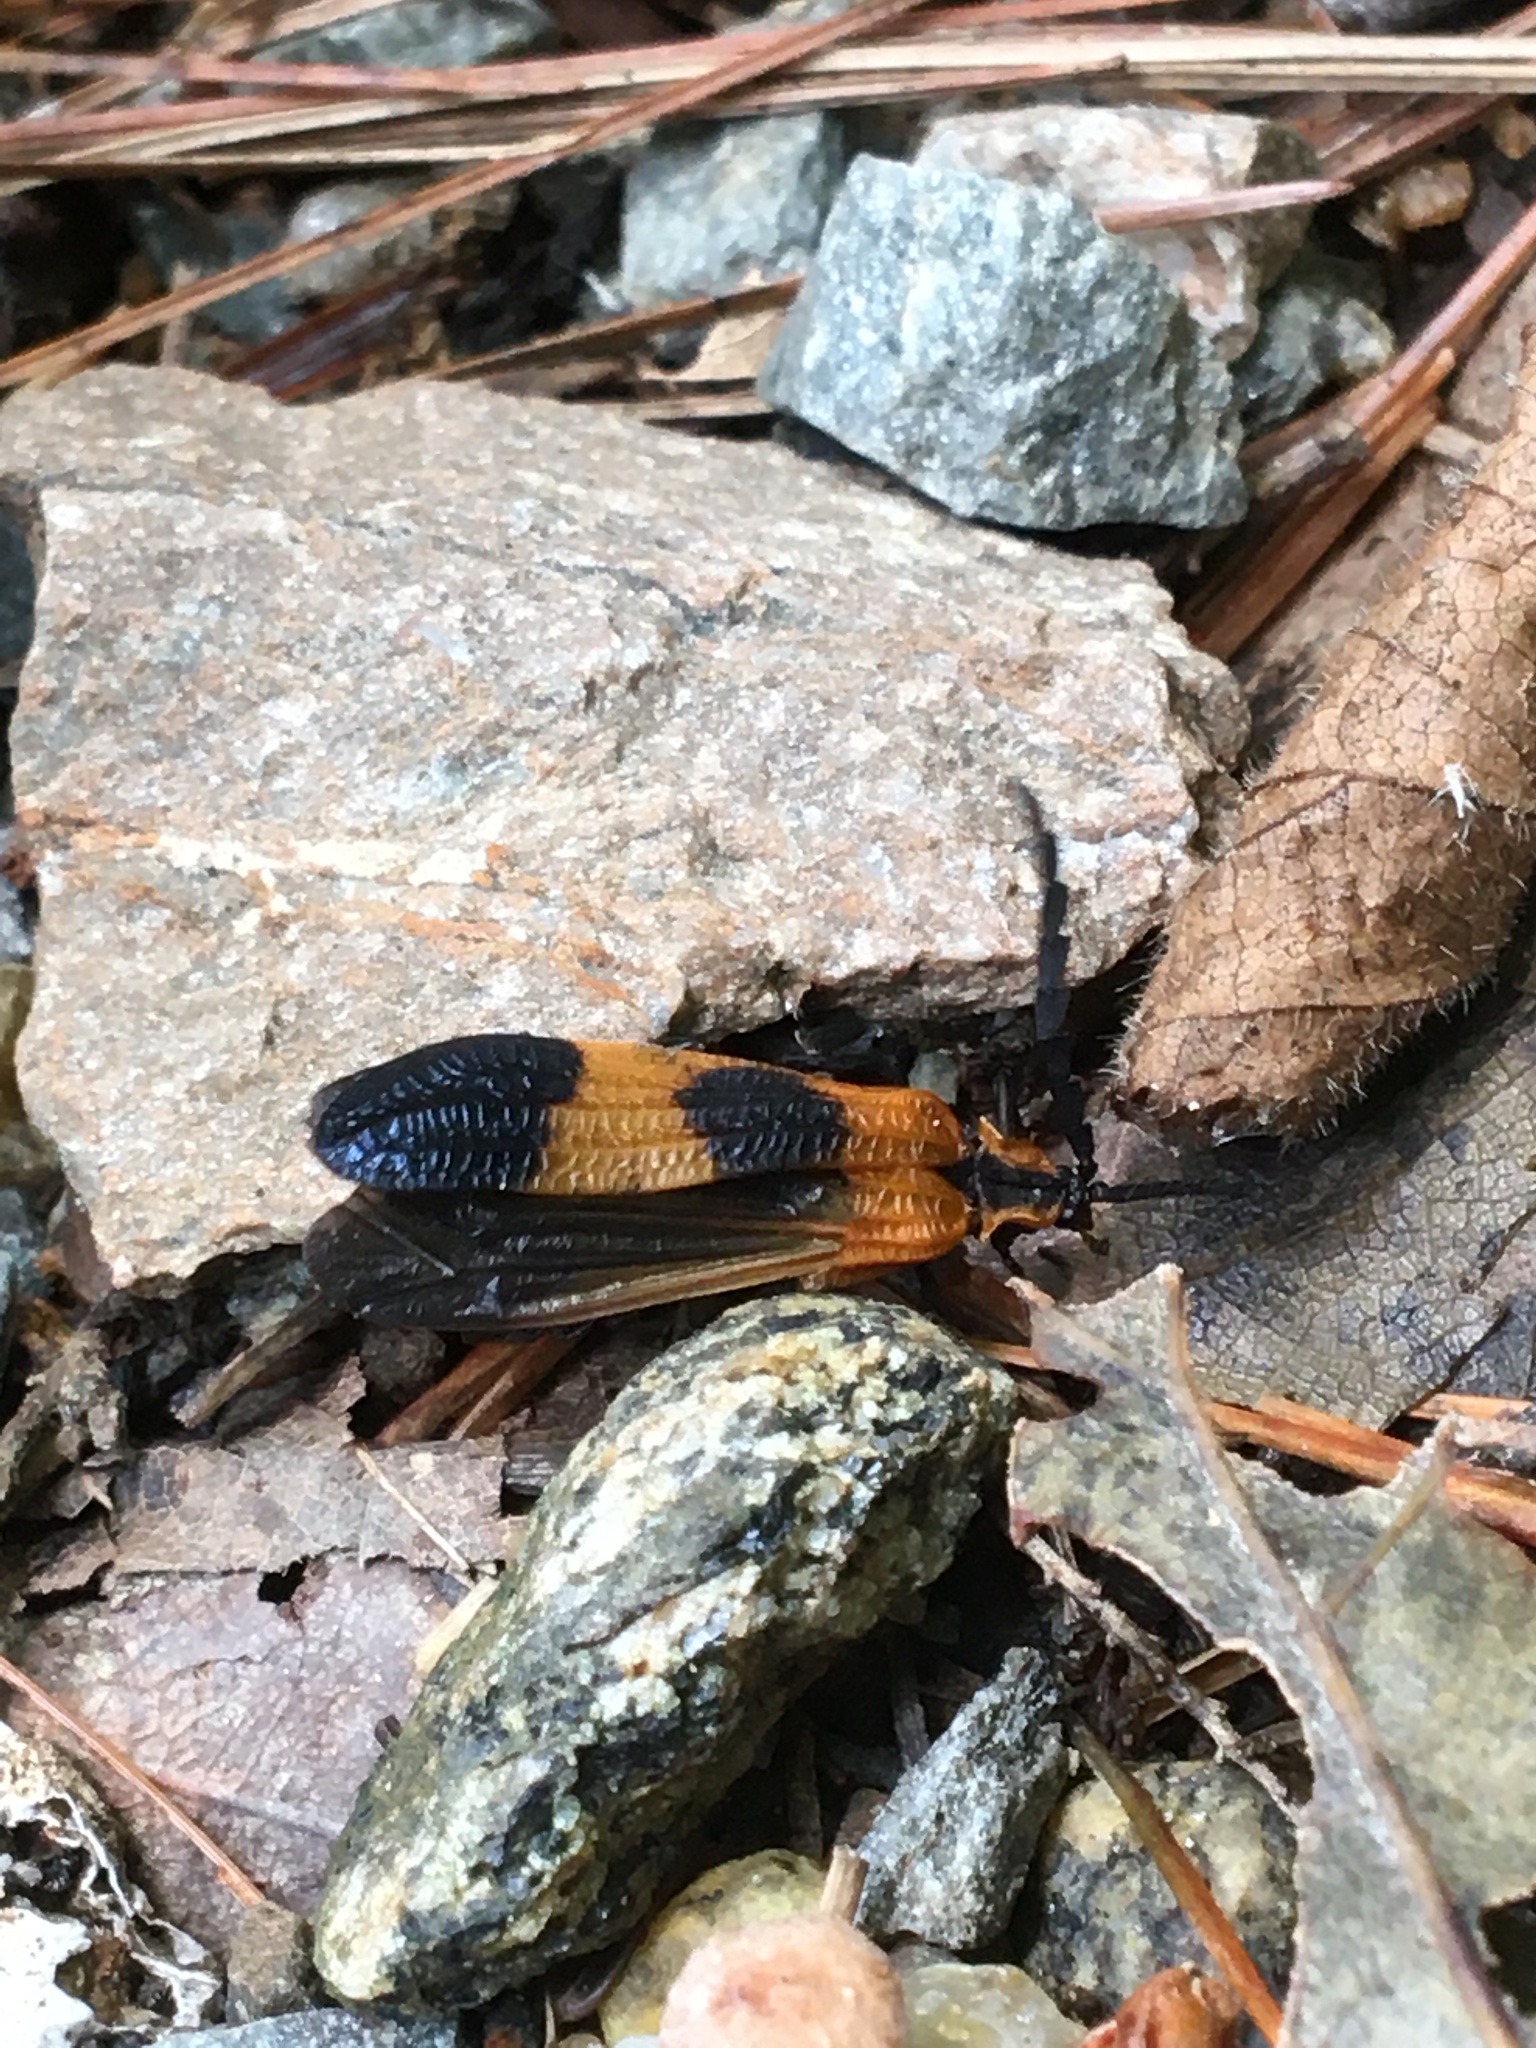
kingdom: Animalia
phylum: Arthropoda
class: Insecta
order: Coleoptera
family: Lycidae
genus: Calopteron
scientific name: Calopteron terminale
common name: End band net-winged beetle
